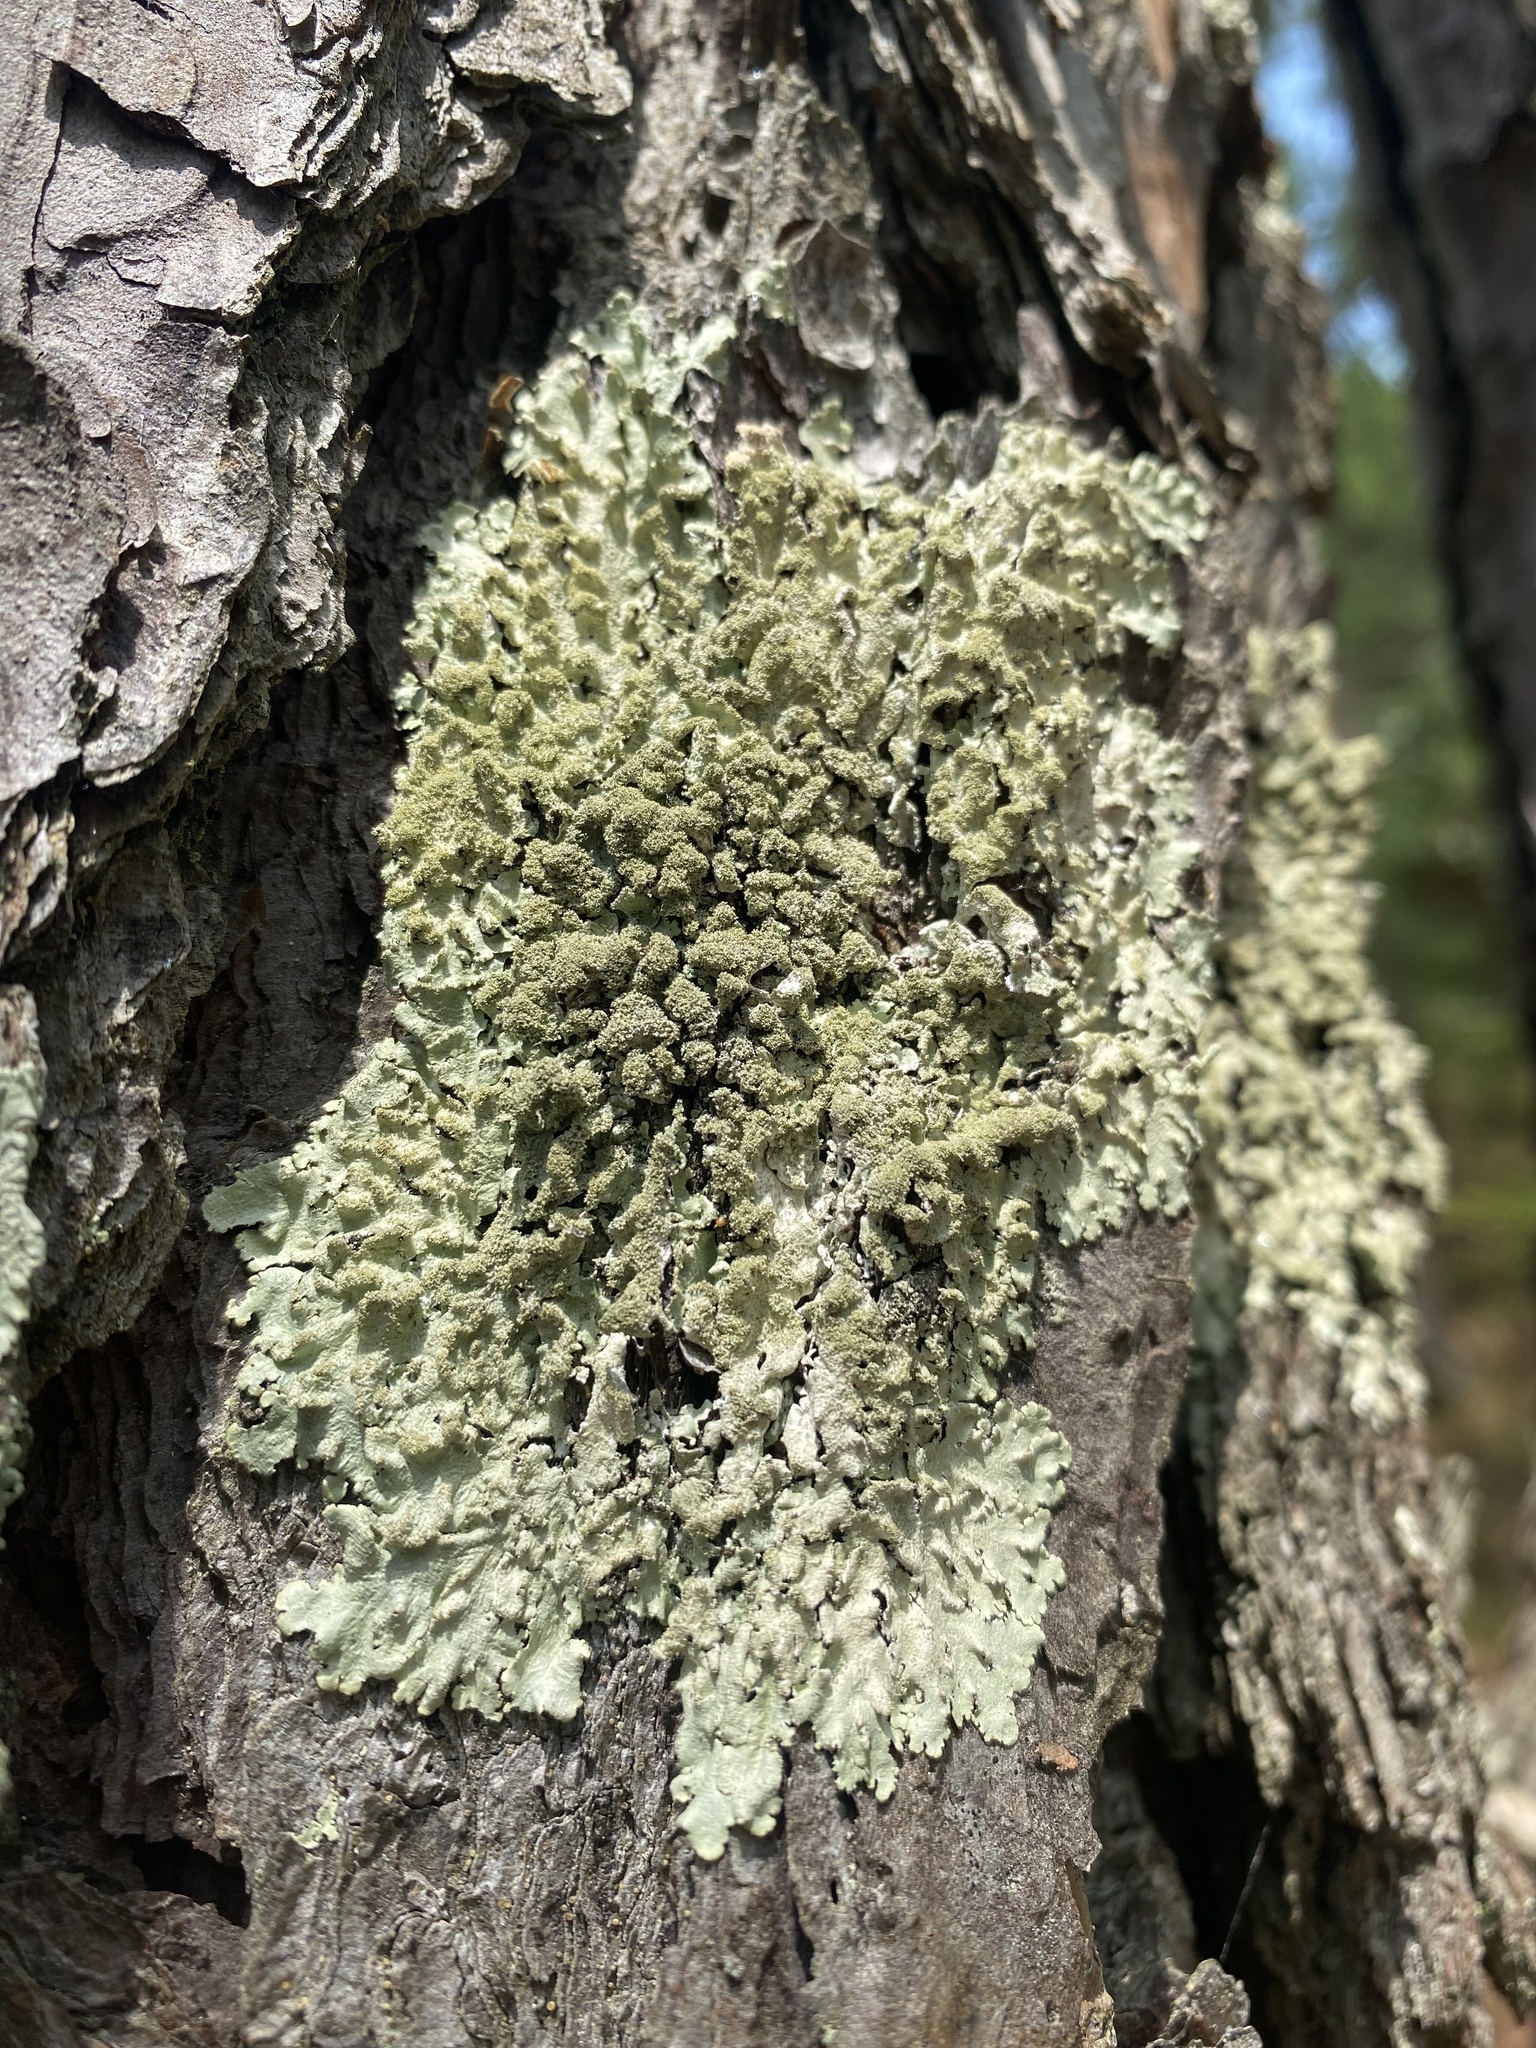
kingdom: Fungi
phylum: Ascomycota
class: Lecanoromycetes
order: Lecanorales
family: Parmeliaceae
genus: Parmeliopsis
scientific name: Parmeliopsis subambigua
